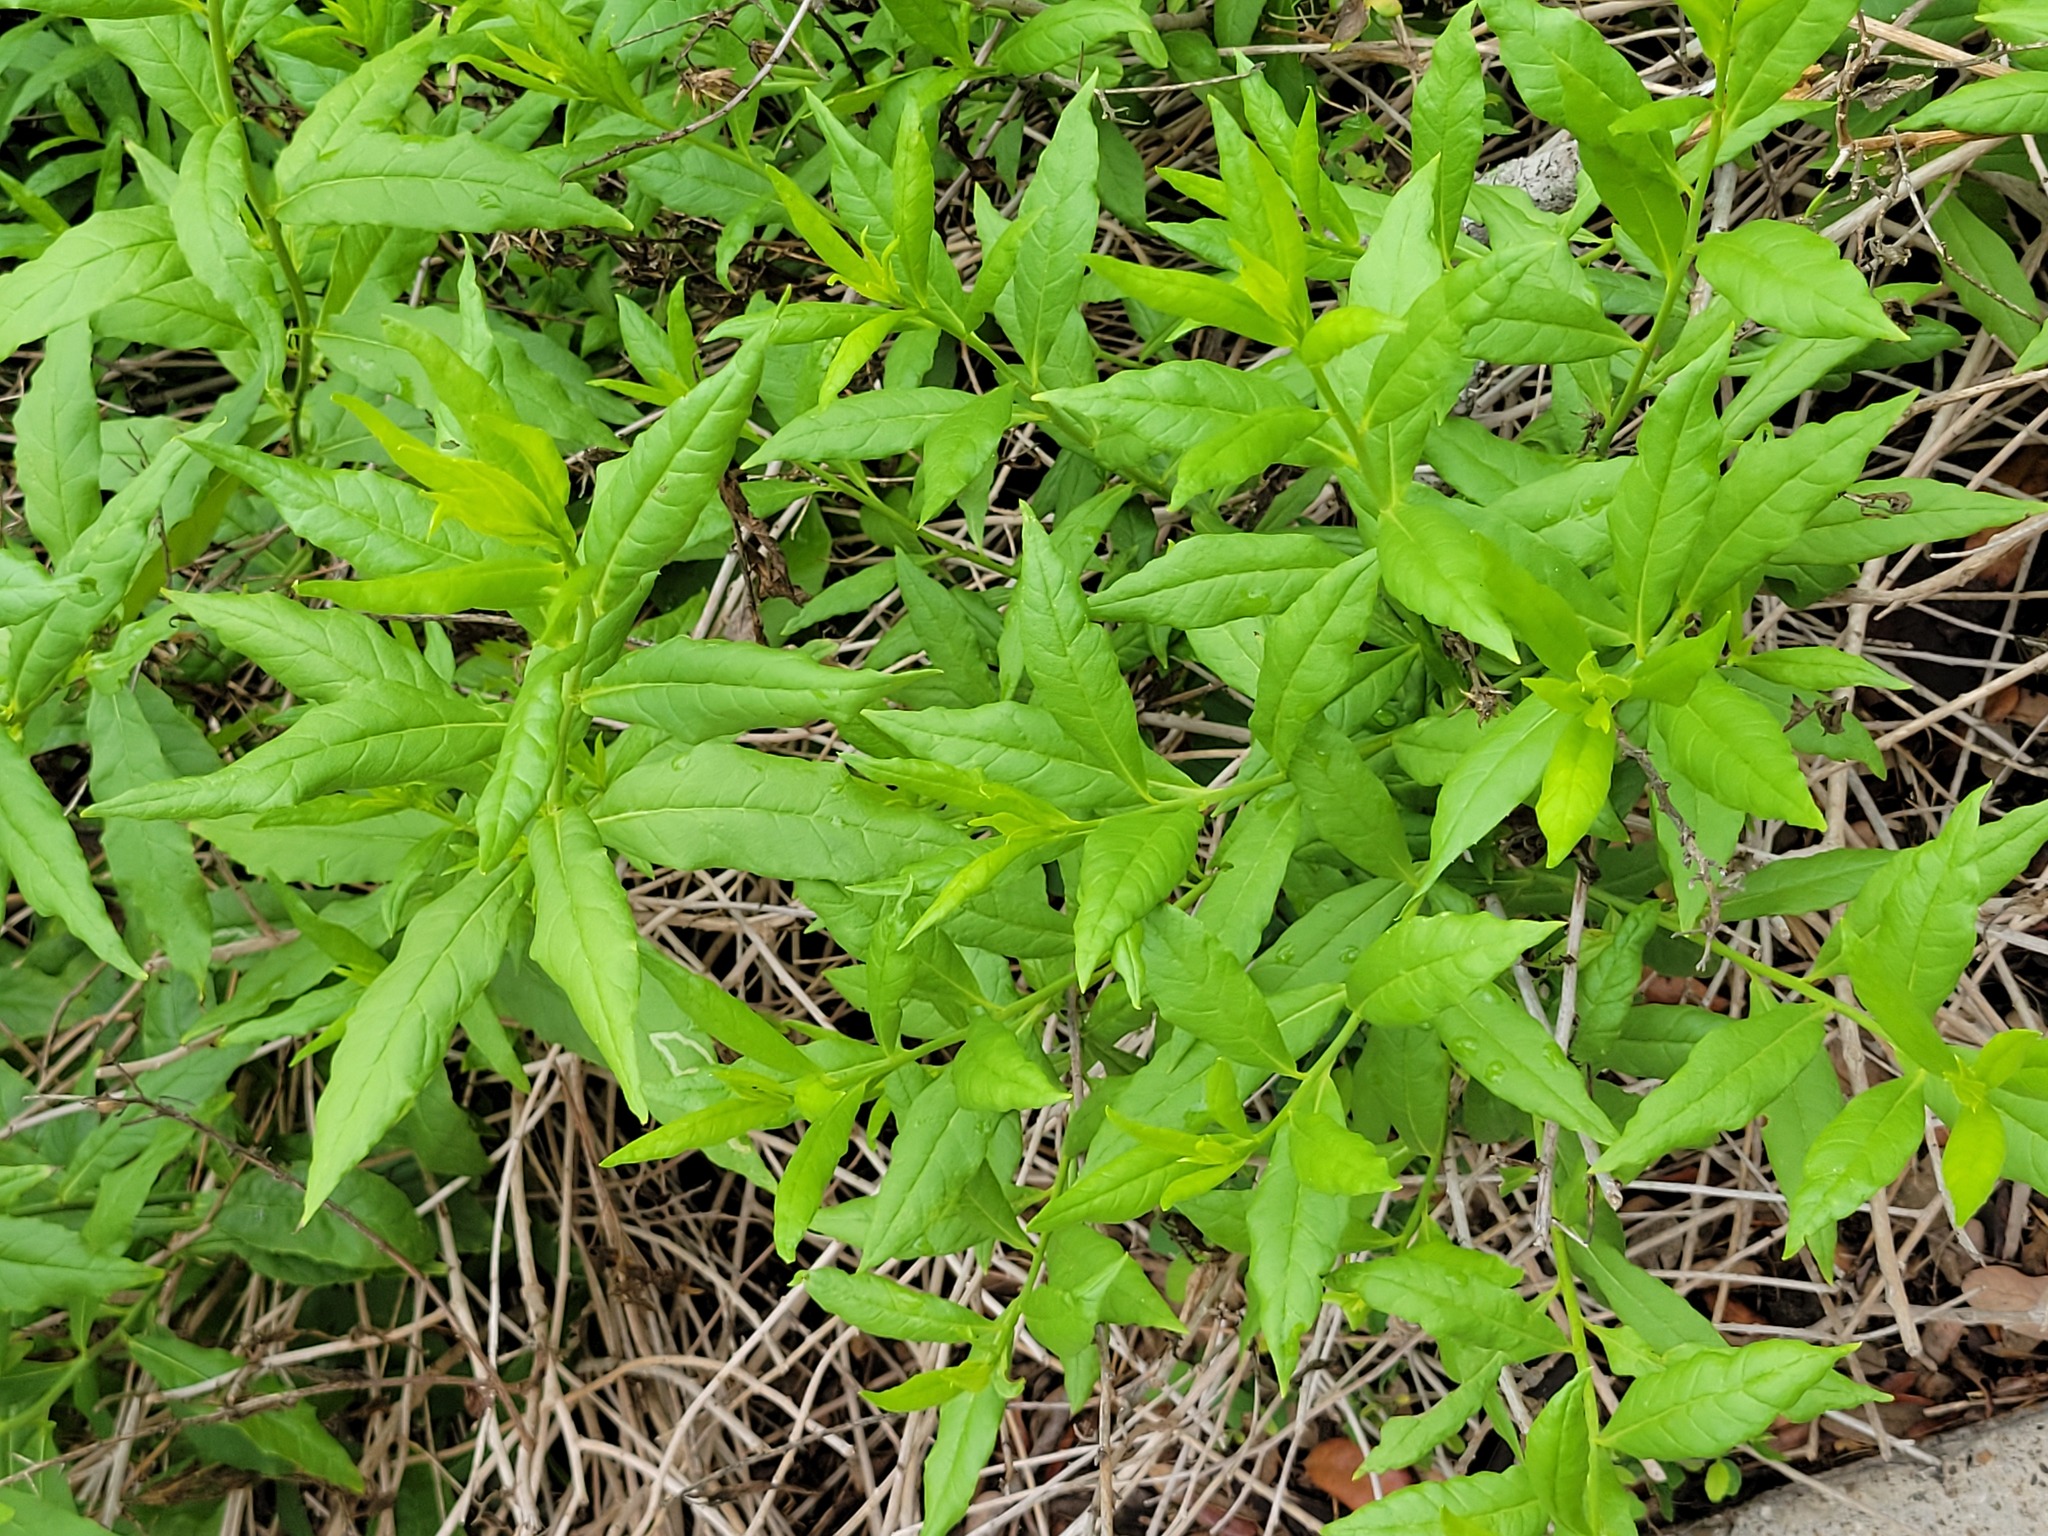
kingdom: Plantae
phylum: Tracheophyta
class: Magnoliopsida
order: Asterales
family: Asteraceae
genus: Trixis
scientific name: Trixis inula
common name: Tropical threefold
